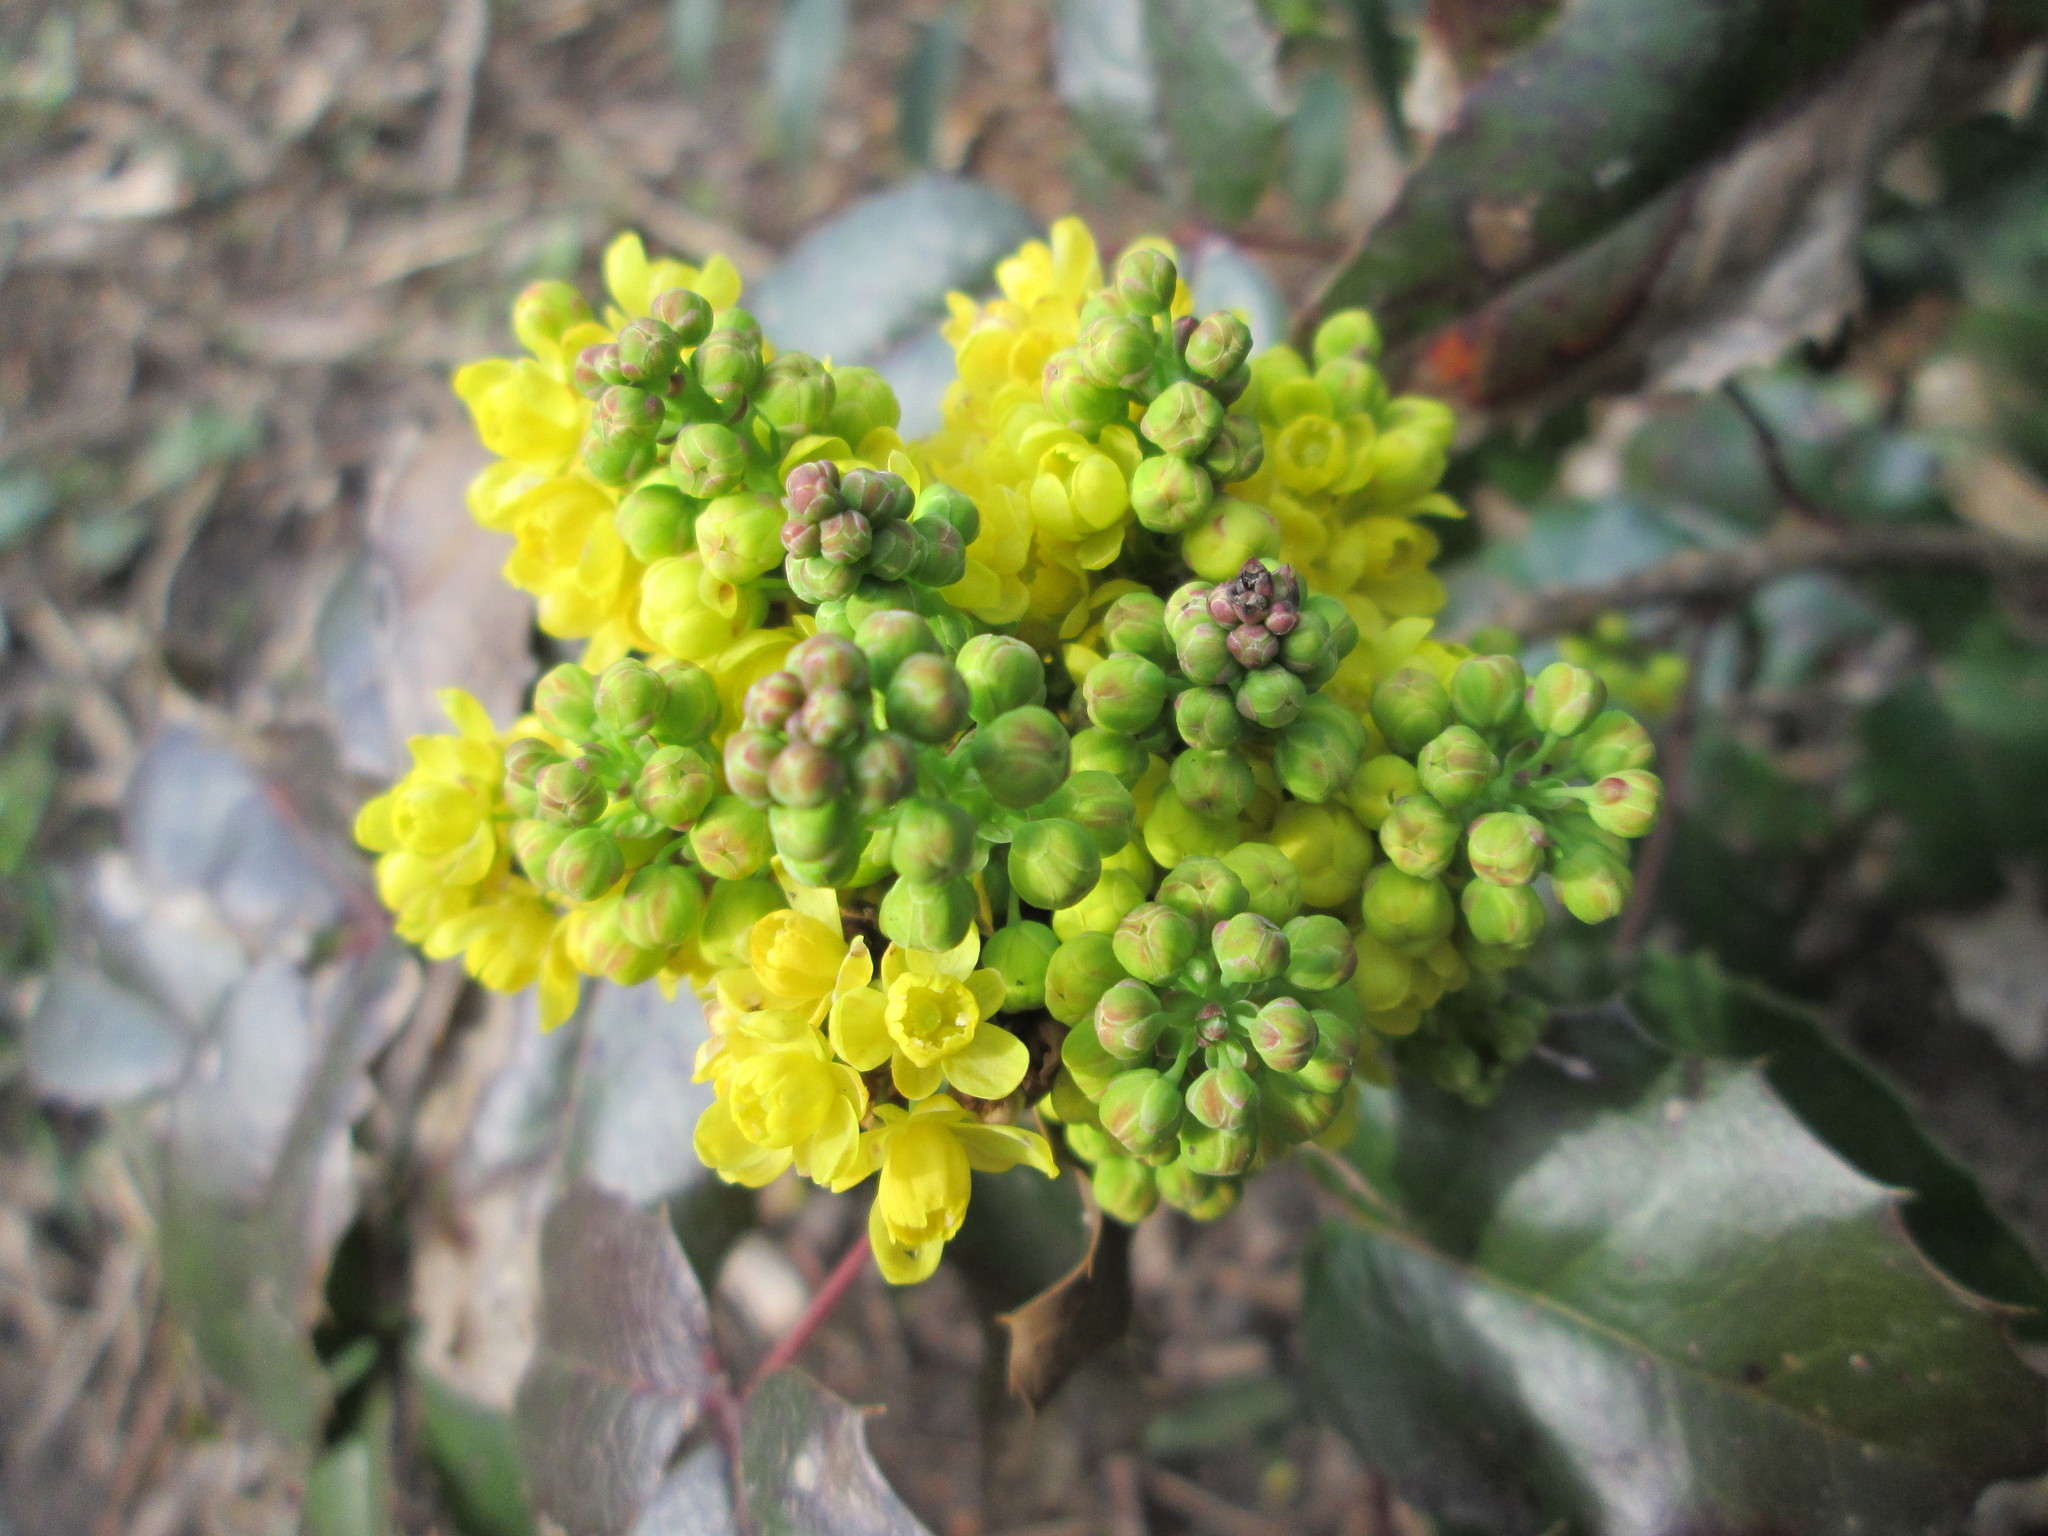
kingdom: Plantae
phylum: Tracheophyta
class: Magnoliopsida
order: Ranunculales
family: Berberidaceae
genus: Mahonia
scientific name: Mahonia aquifolium
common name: Oregon-grape
